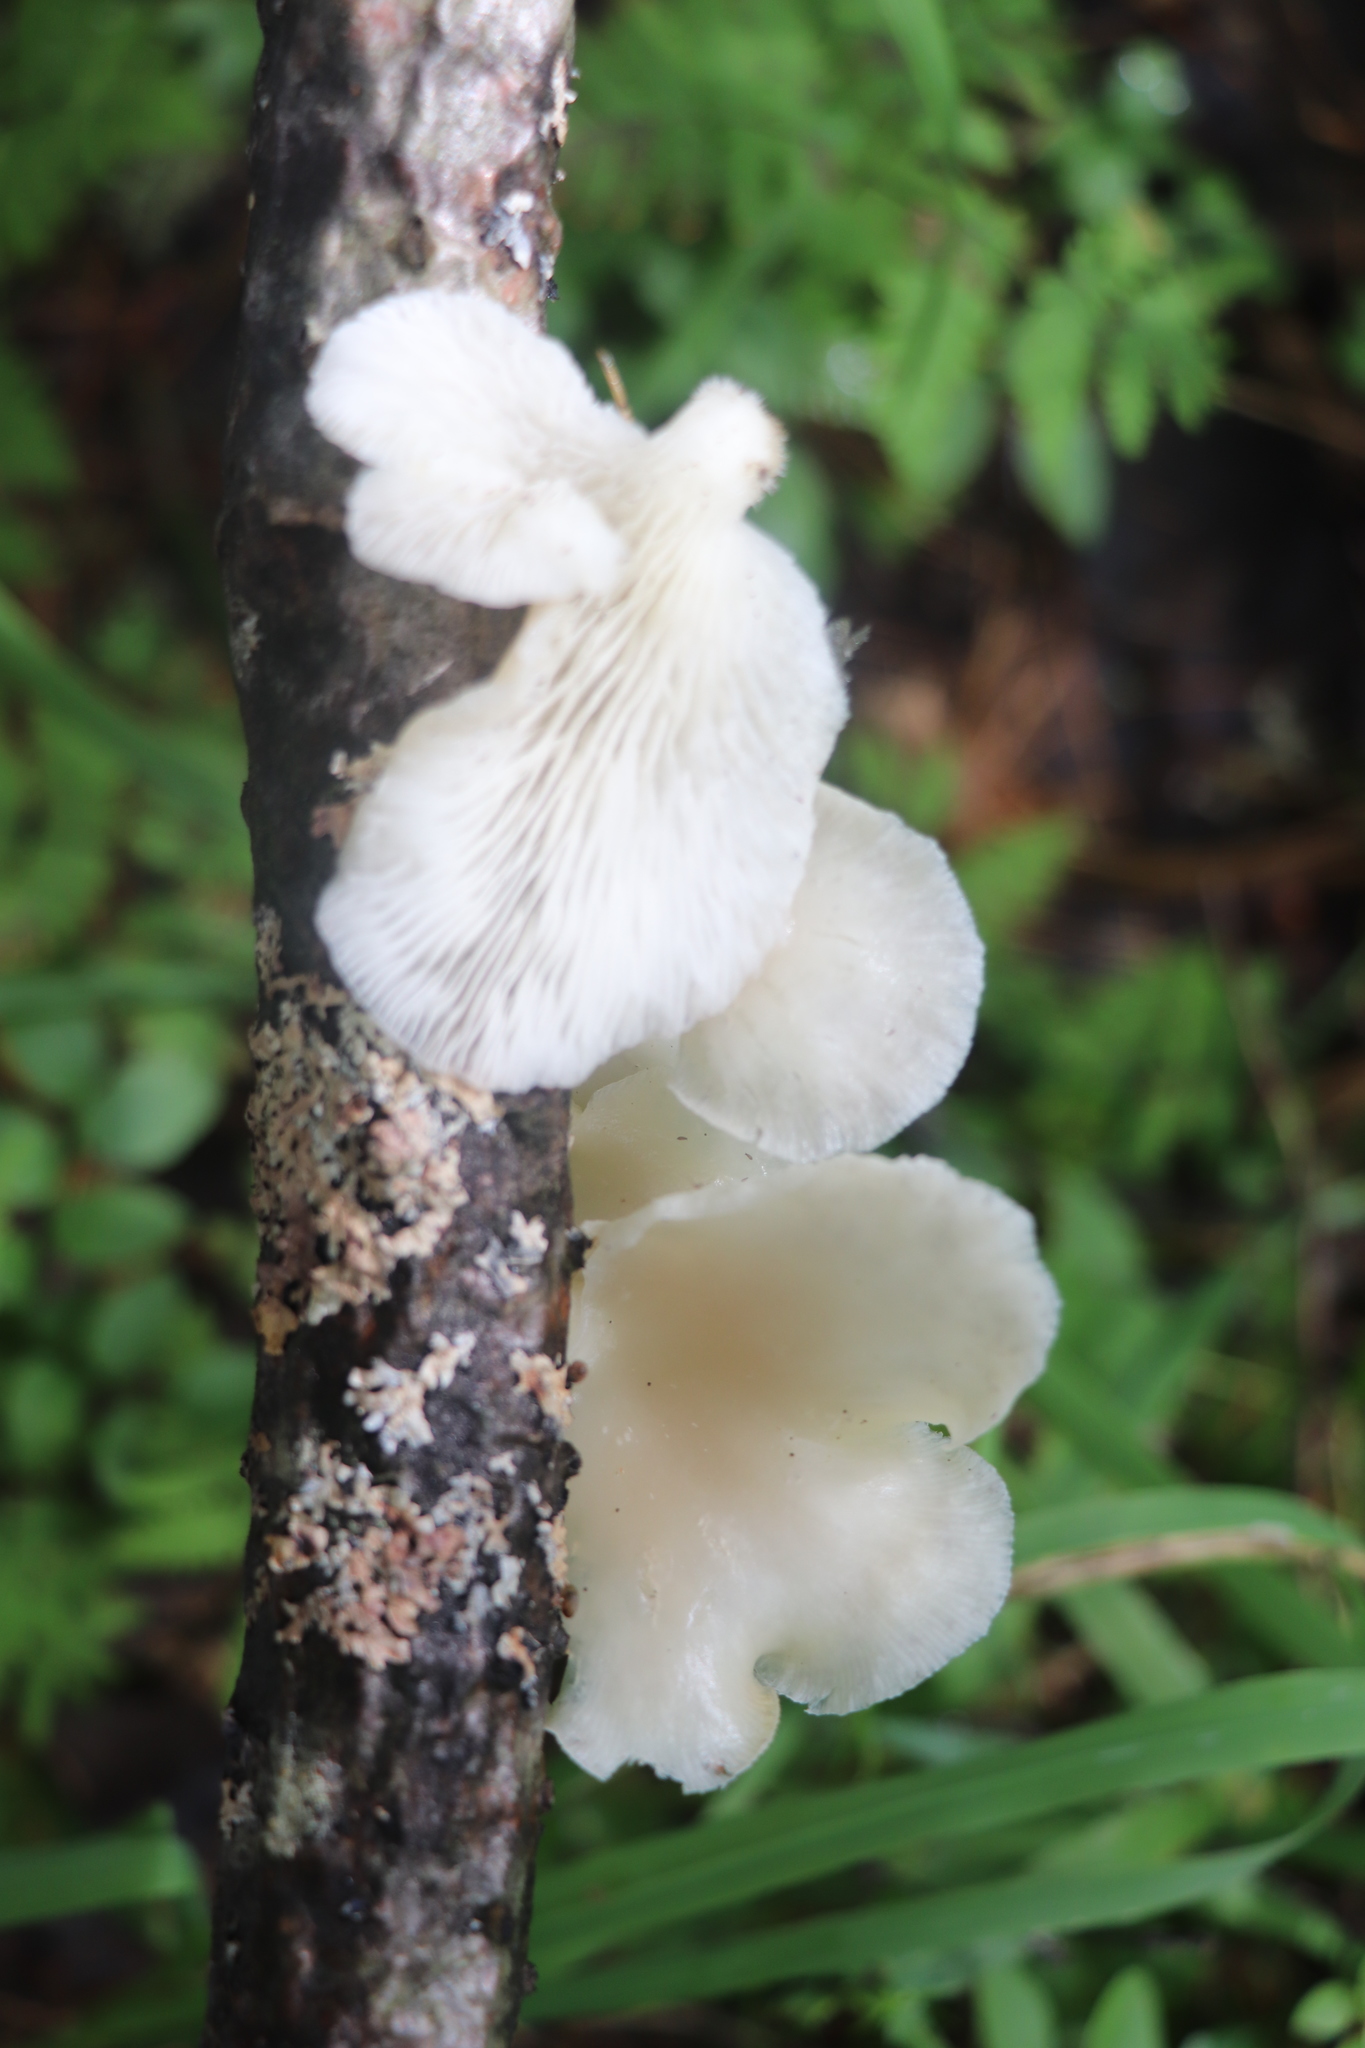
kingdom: Fungi
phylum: Basidiomycota
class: Agaricomycetes
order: Agaricales
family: Pleurotaceae
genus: Pleurotus
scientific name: Pleurotus pulmonarius
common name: Pale oyster
